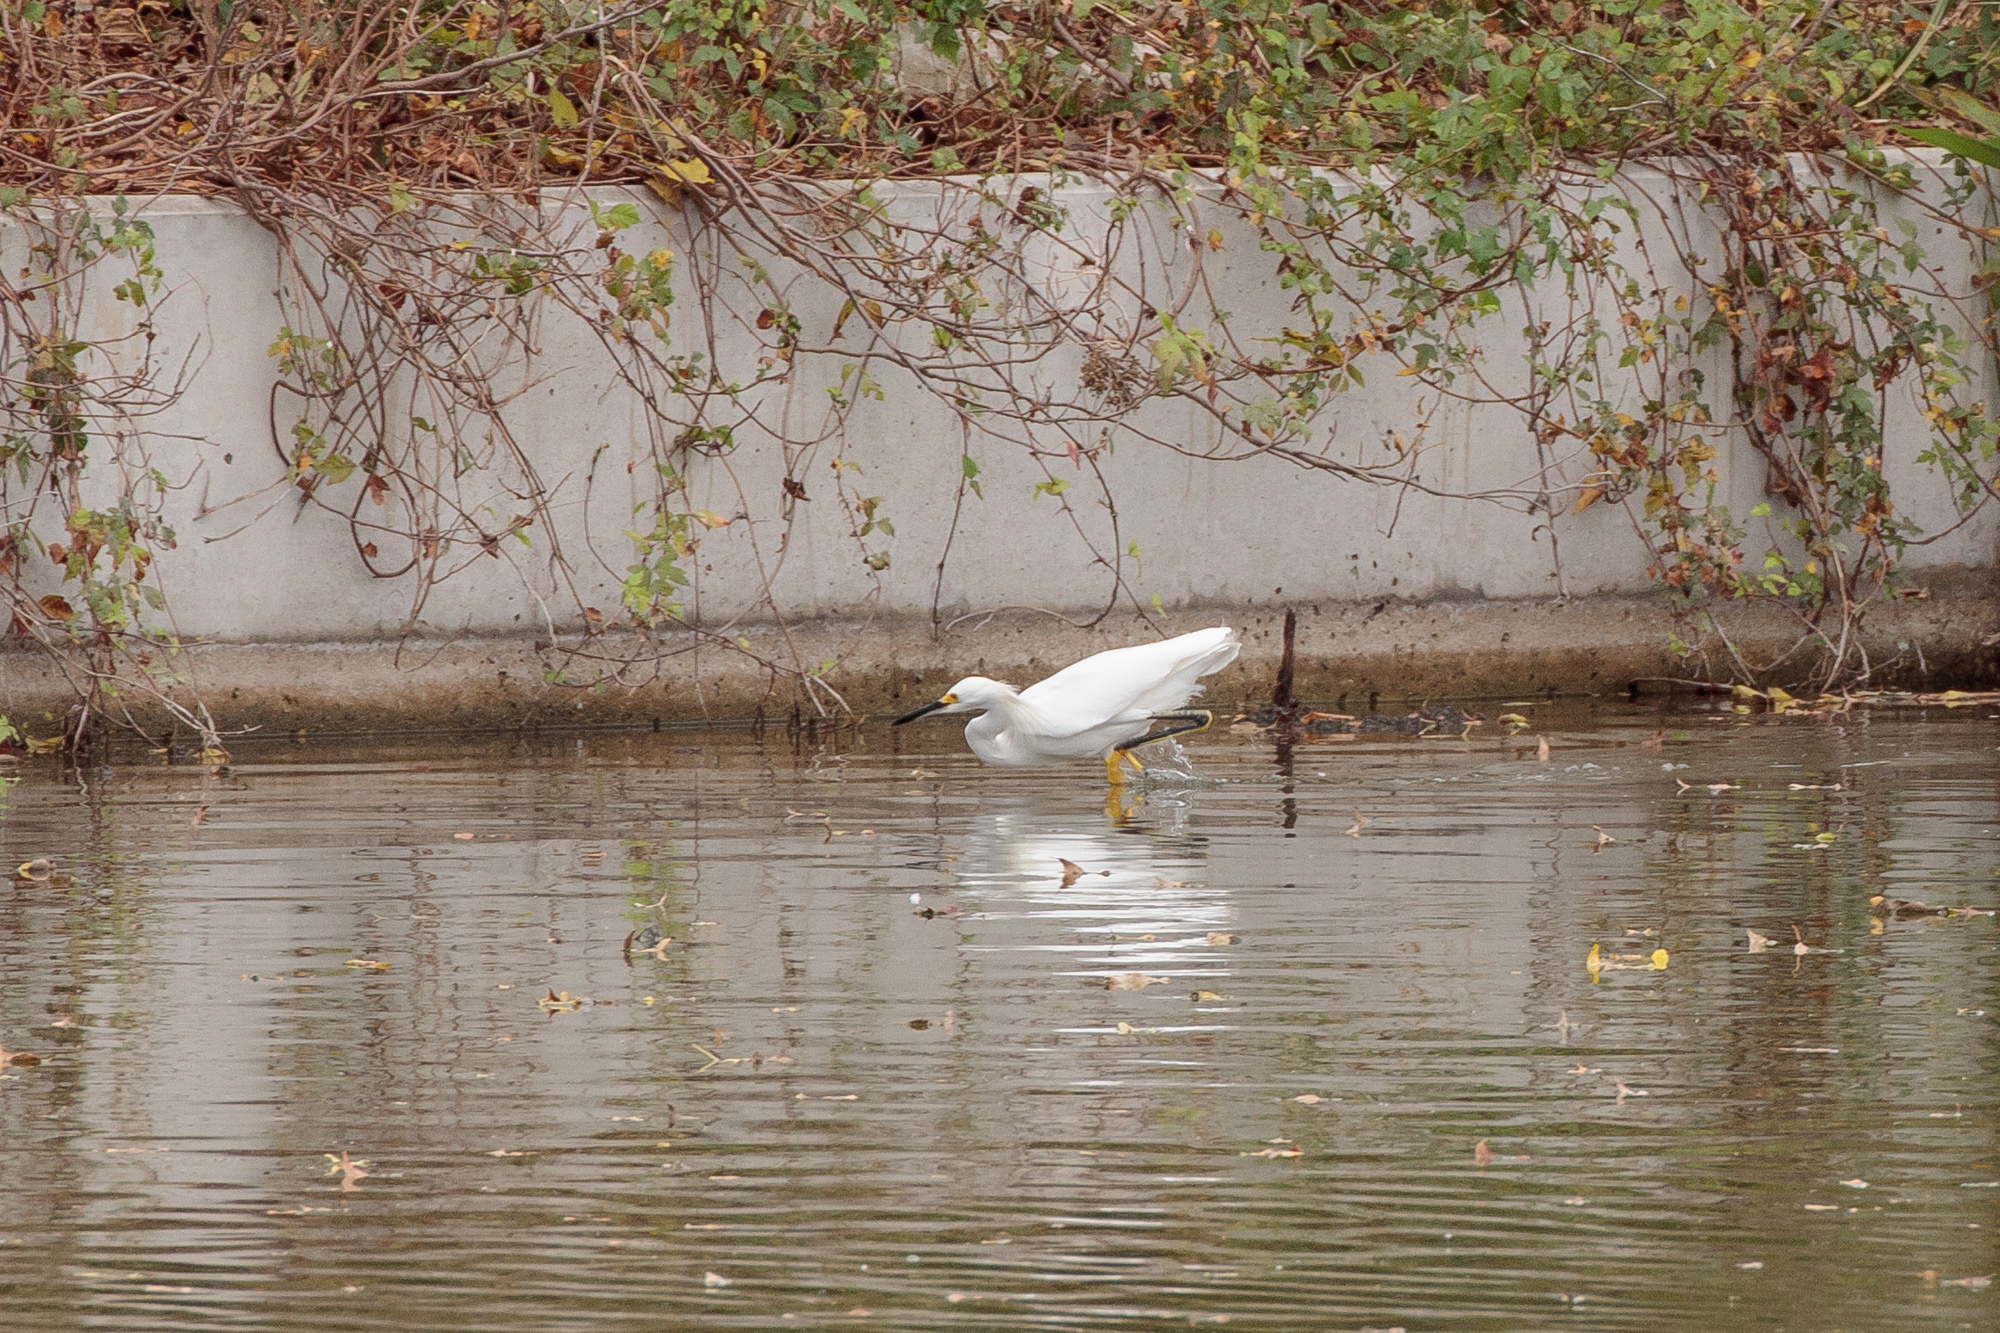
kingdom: Animalia
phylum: Chordata
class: Aves
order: Pelecaniformes
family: Ardeidae
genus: Egretta
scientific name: Egretta thula
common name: Snowy egret
